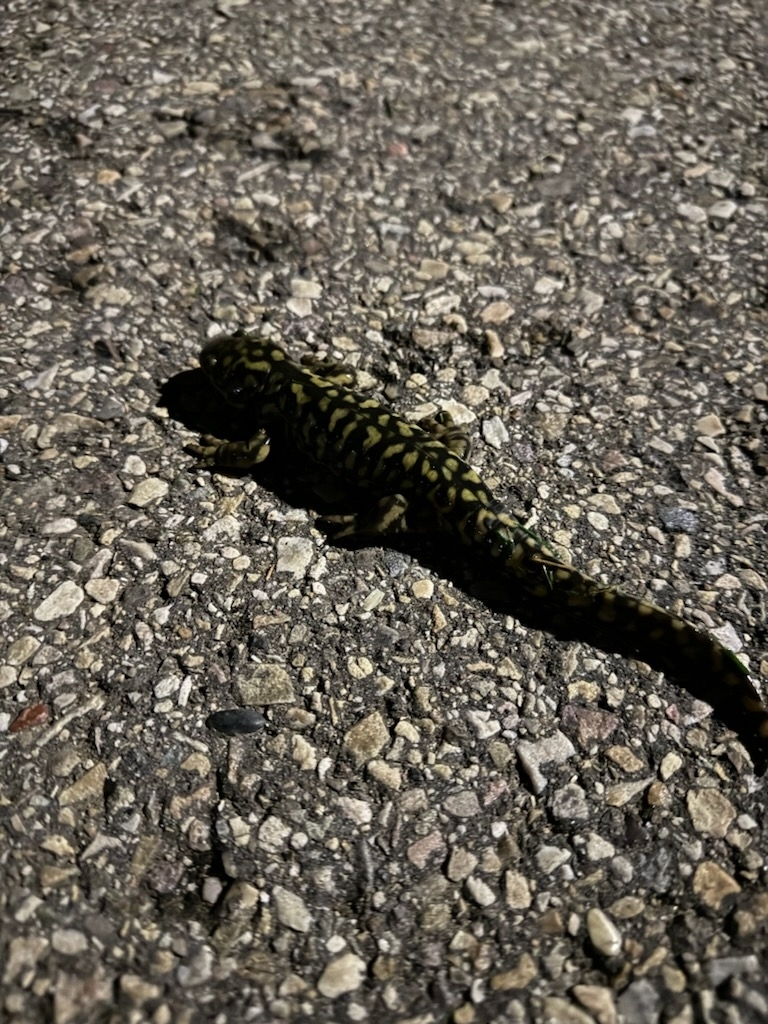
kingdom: Animalia
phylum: Chordata
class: Amphibia
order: Caudata
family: Ambystomatidae
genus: Ambystoma
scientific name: Ambystoma mavortium
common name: Western tiger salamander
